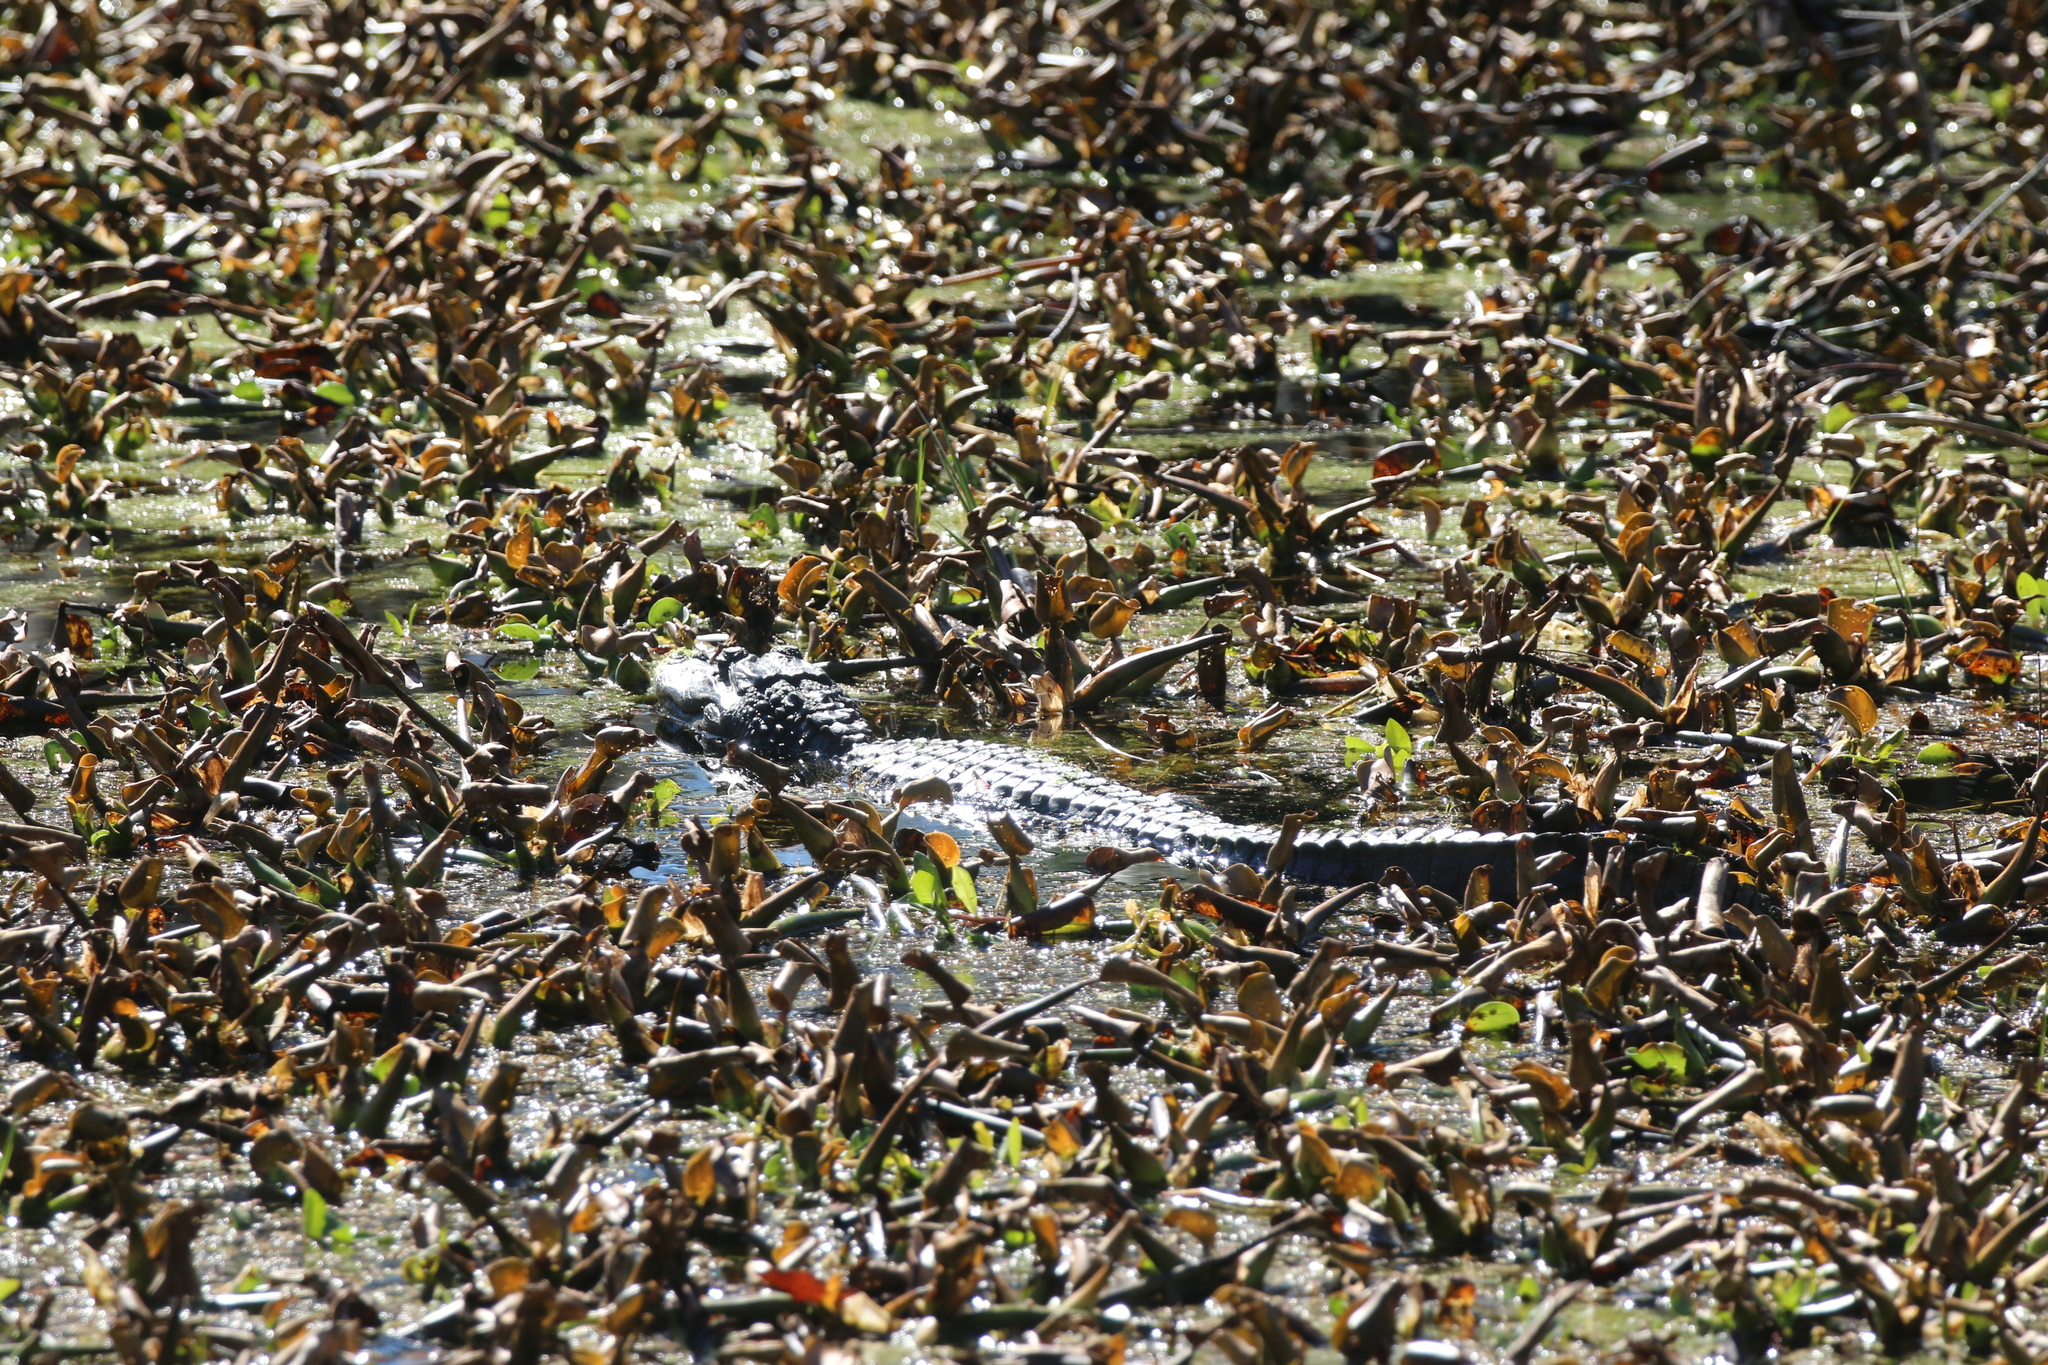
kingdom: Animalia
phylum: Chordata
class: Crocodylia
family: Alligatoridae
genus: Alligator
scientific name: Alligator mississippiensis
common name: American alligator
